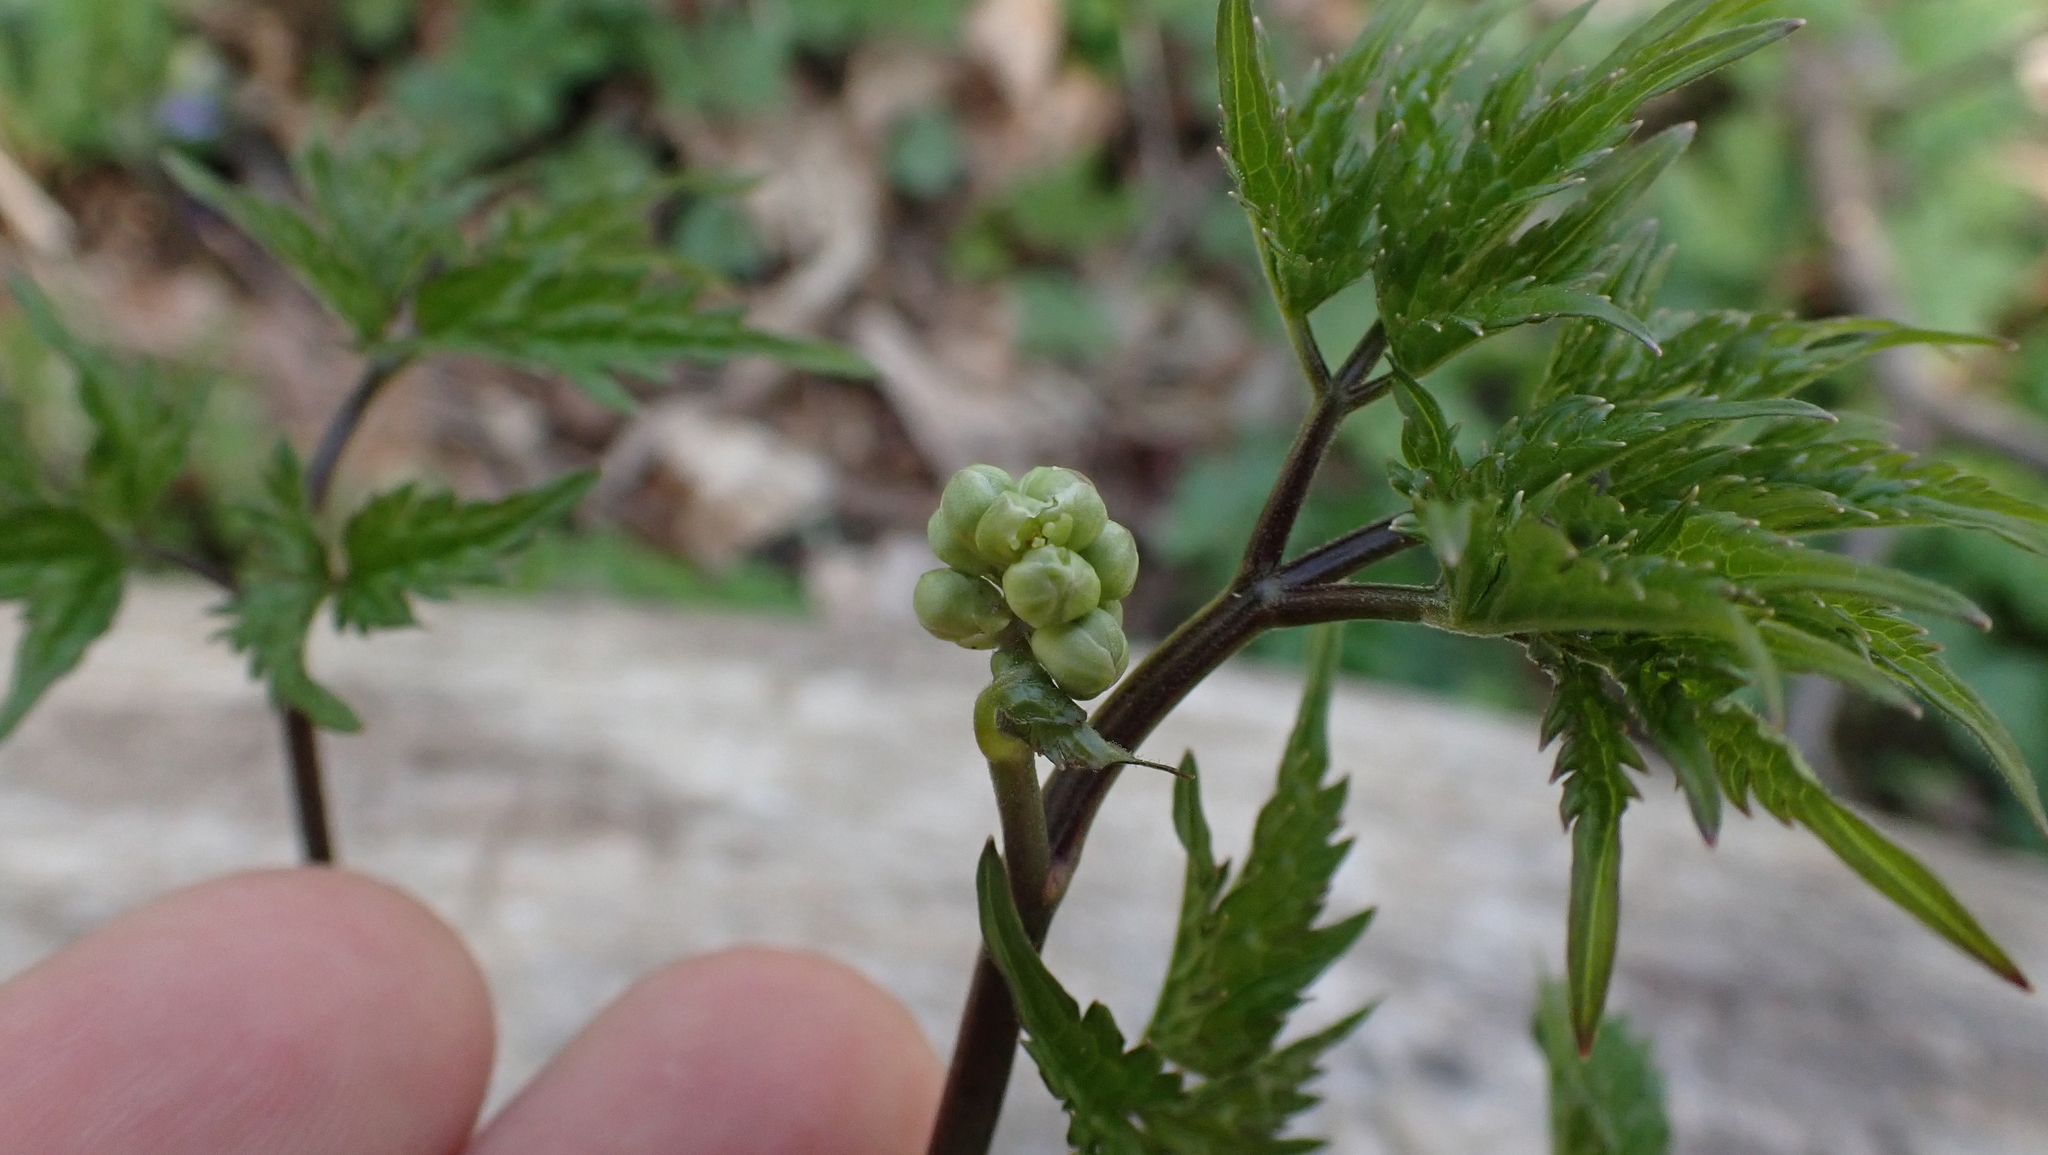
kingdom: Plantae
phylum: Tracheophyta
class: Magnoliopsida
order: Ranunculales
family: Ranunculaceae
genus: Actaea
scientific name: Actaea pachypoda
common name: Doll's-eyes
